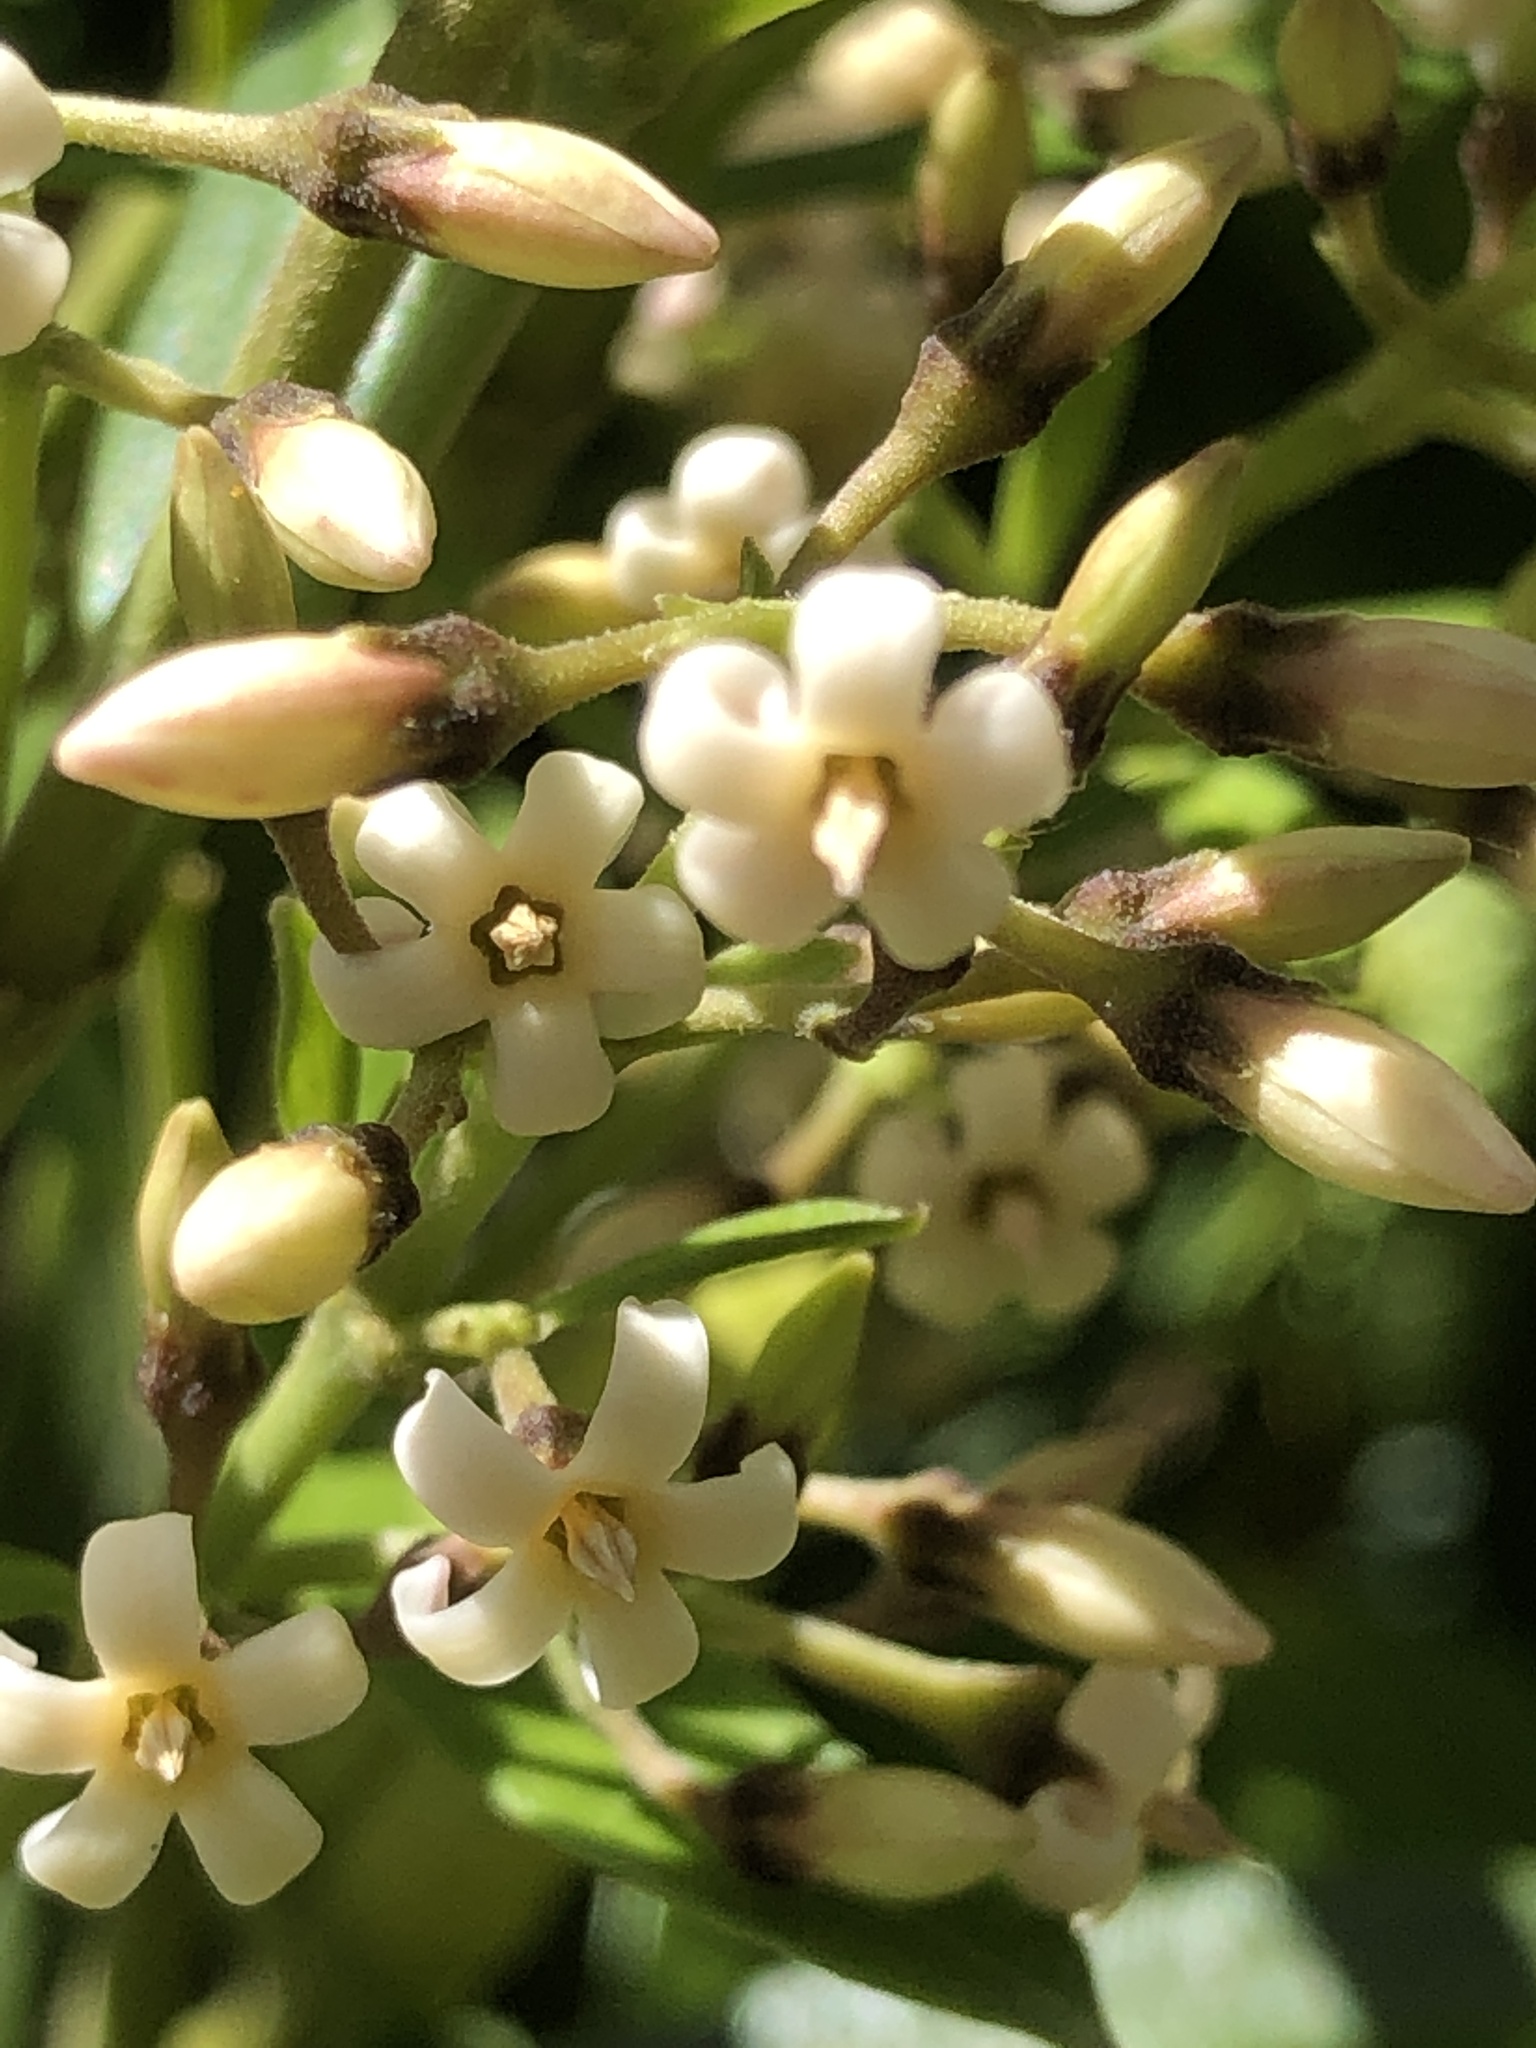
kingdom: Plantae
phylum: Tracheophyta
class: Magnoliopsida
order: Gentianales
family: Apocynaceae
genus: Parsonsia
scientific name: Parsonsia capsularis
